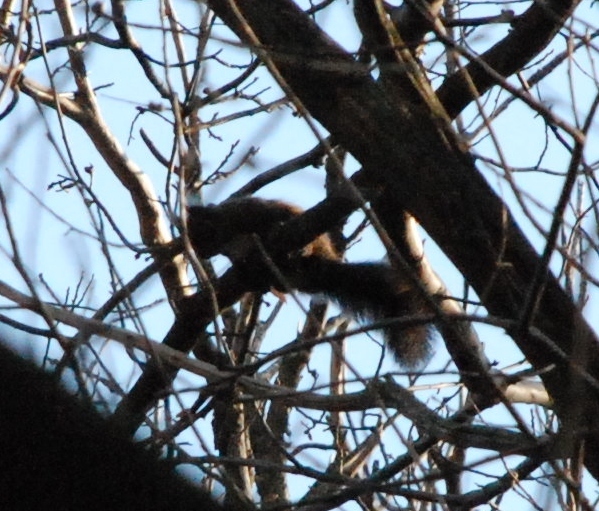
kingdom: Animalia
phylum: Chordata
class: Mammalia
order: Rodentia
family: Sciuridae
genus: Sciurus
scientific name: Sciurus vulgaris
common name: Eurasian red squirrel
